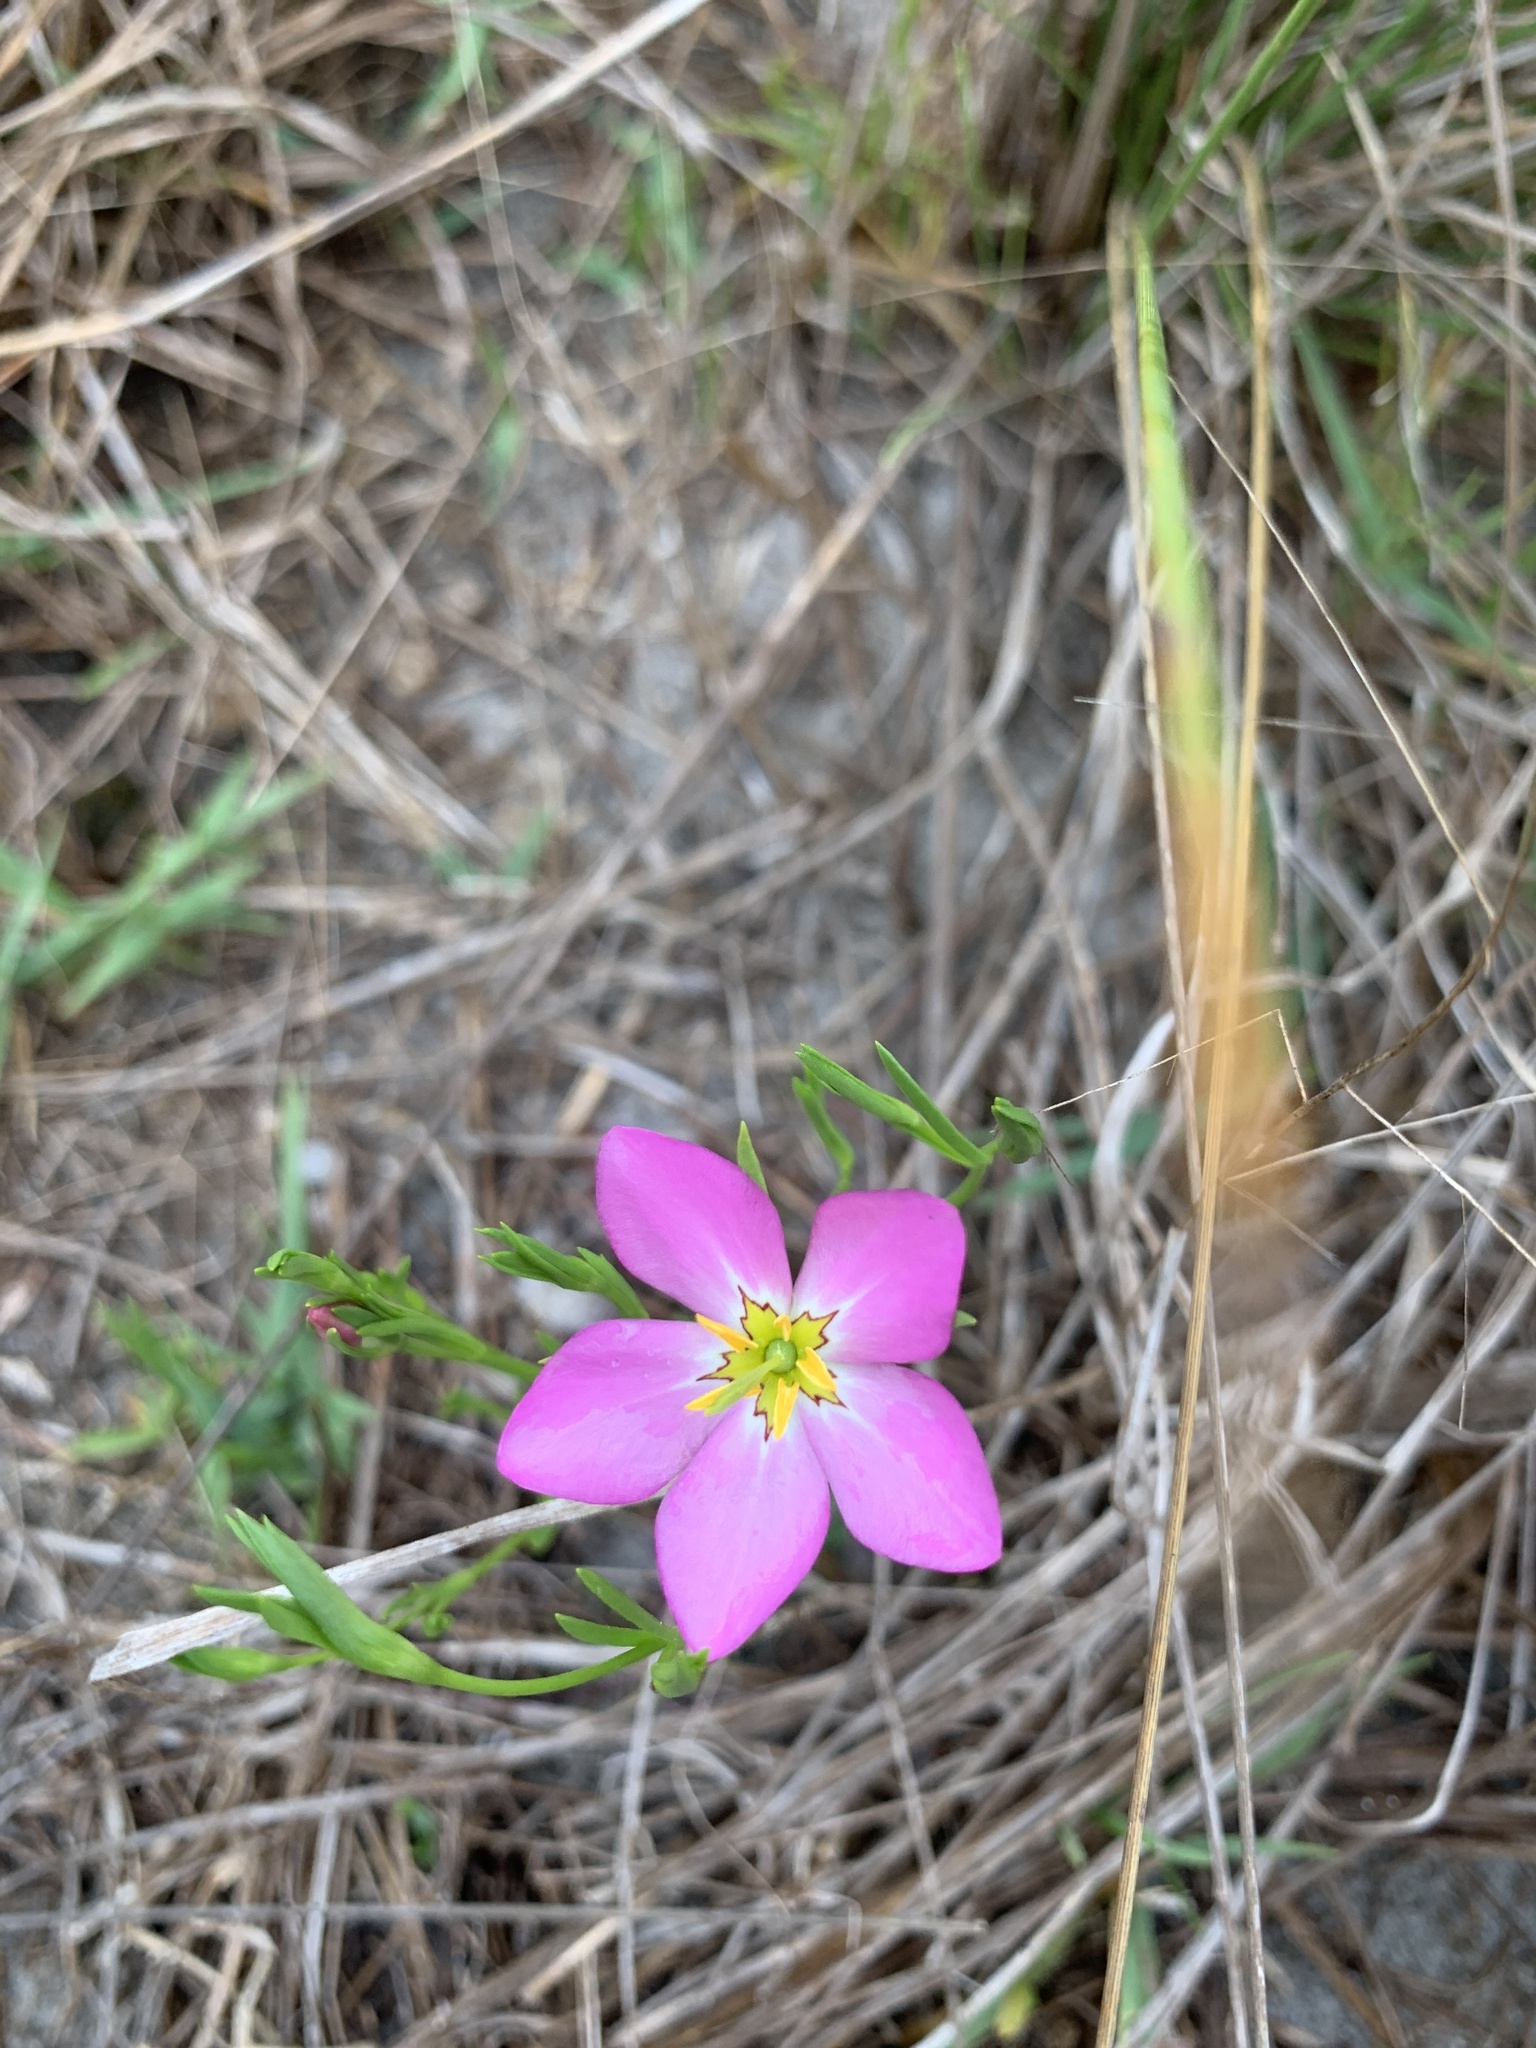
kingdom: Plantae
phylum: Tracheophyta
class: Magnoliopsida
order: Gentianales
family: Gentianaceae
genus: Sabatia
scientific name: Sabatia stellaris
